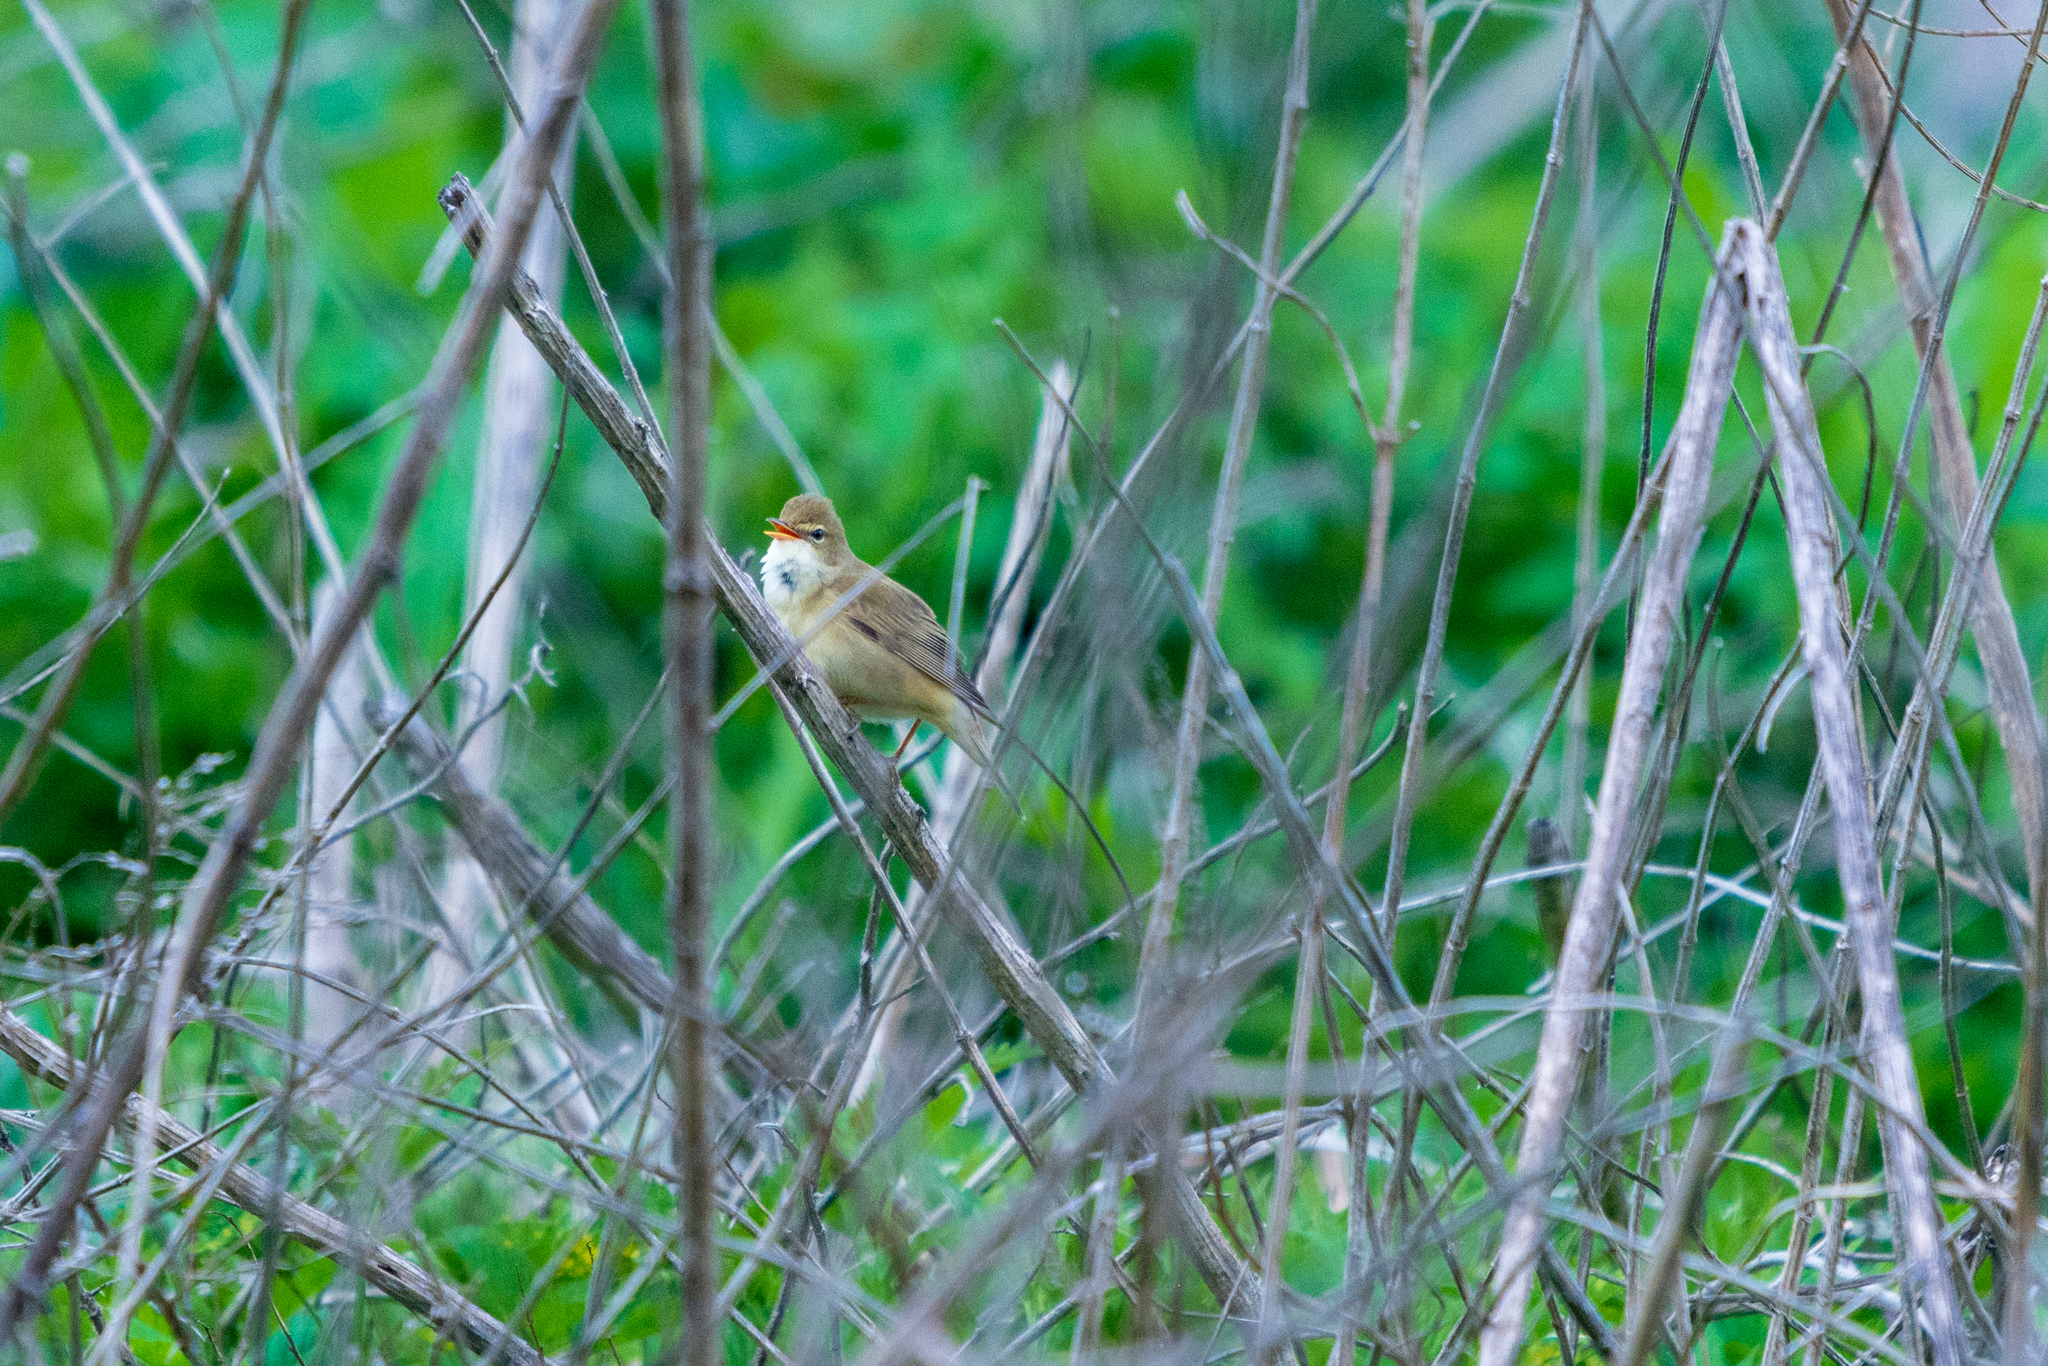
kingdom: Animalia
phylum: Chordata
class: Aves
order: Passeriformes
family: Acrocephalidae
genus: Acrocephalus
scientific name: Acrocephalus arundinaceus
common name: Great reed warbler
